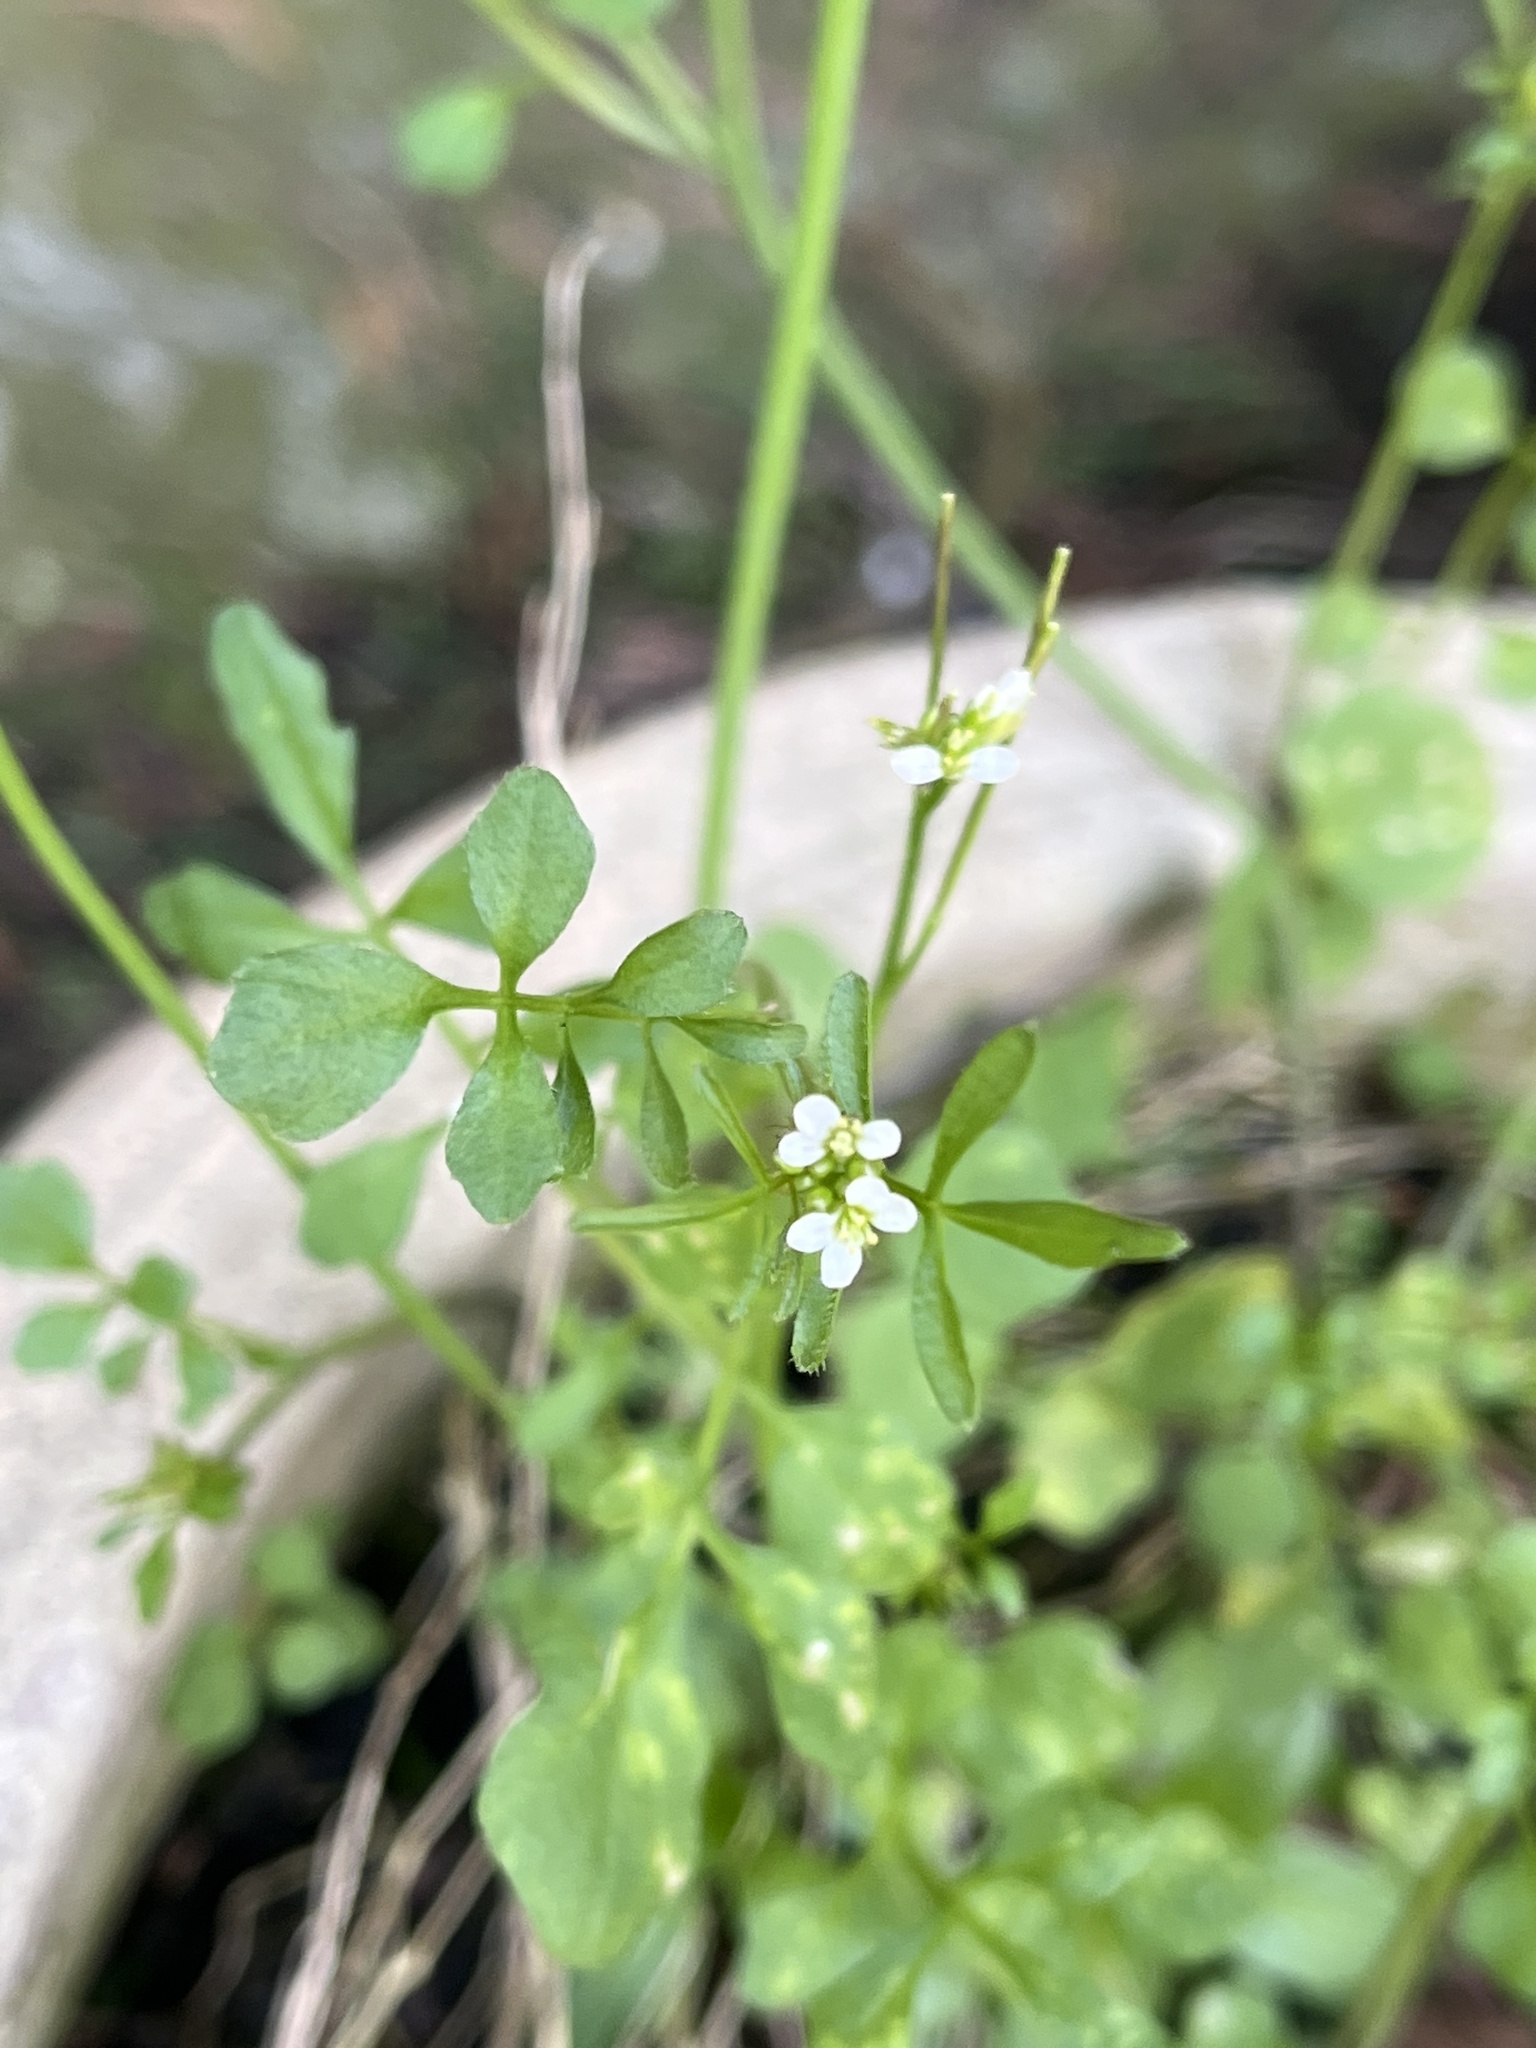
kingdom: Plantae
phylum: Tracheophyta
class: Magnoliopsida
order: Brassicales
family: Brassicaceae
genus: Cardamine
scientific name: Cardamine hirsuta
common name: Hairy bittercress
